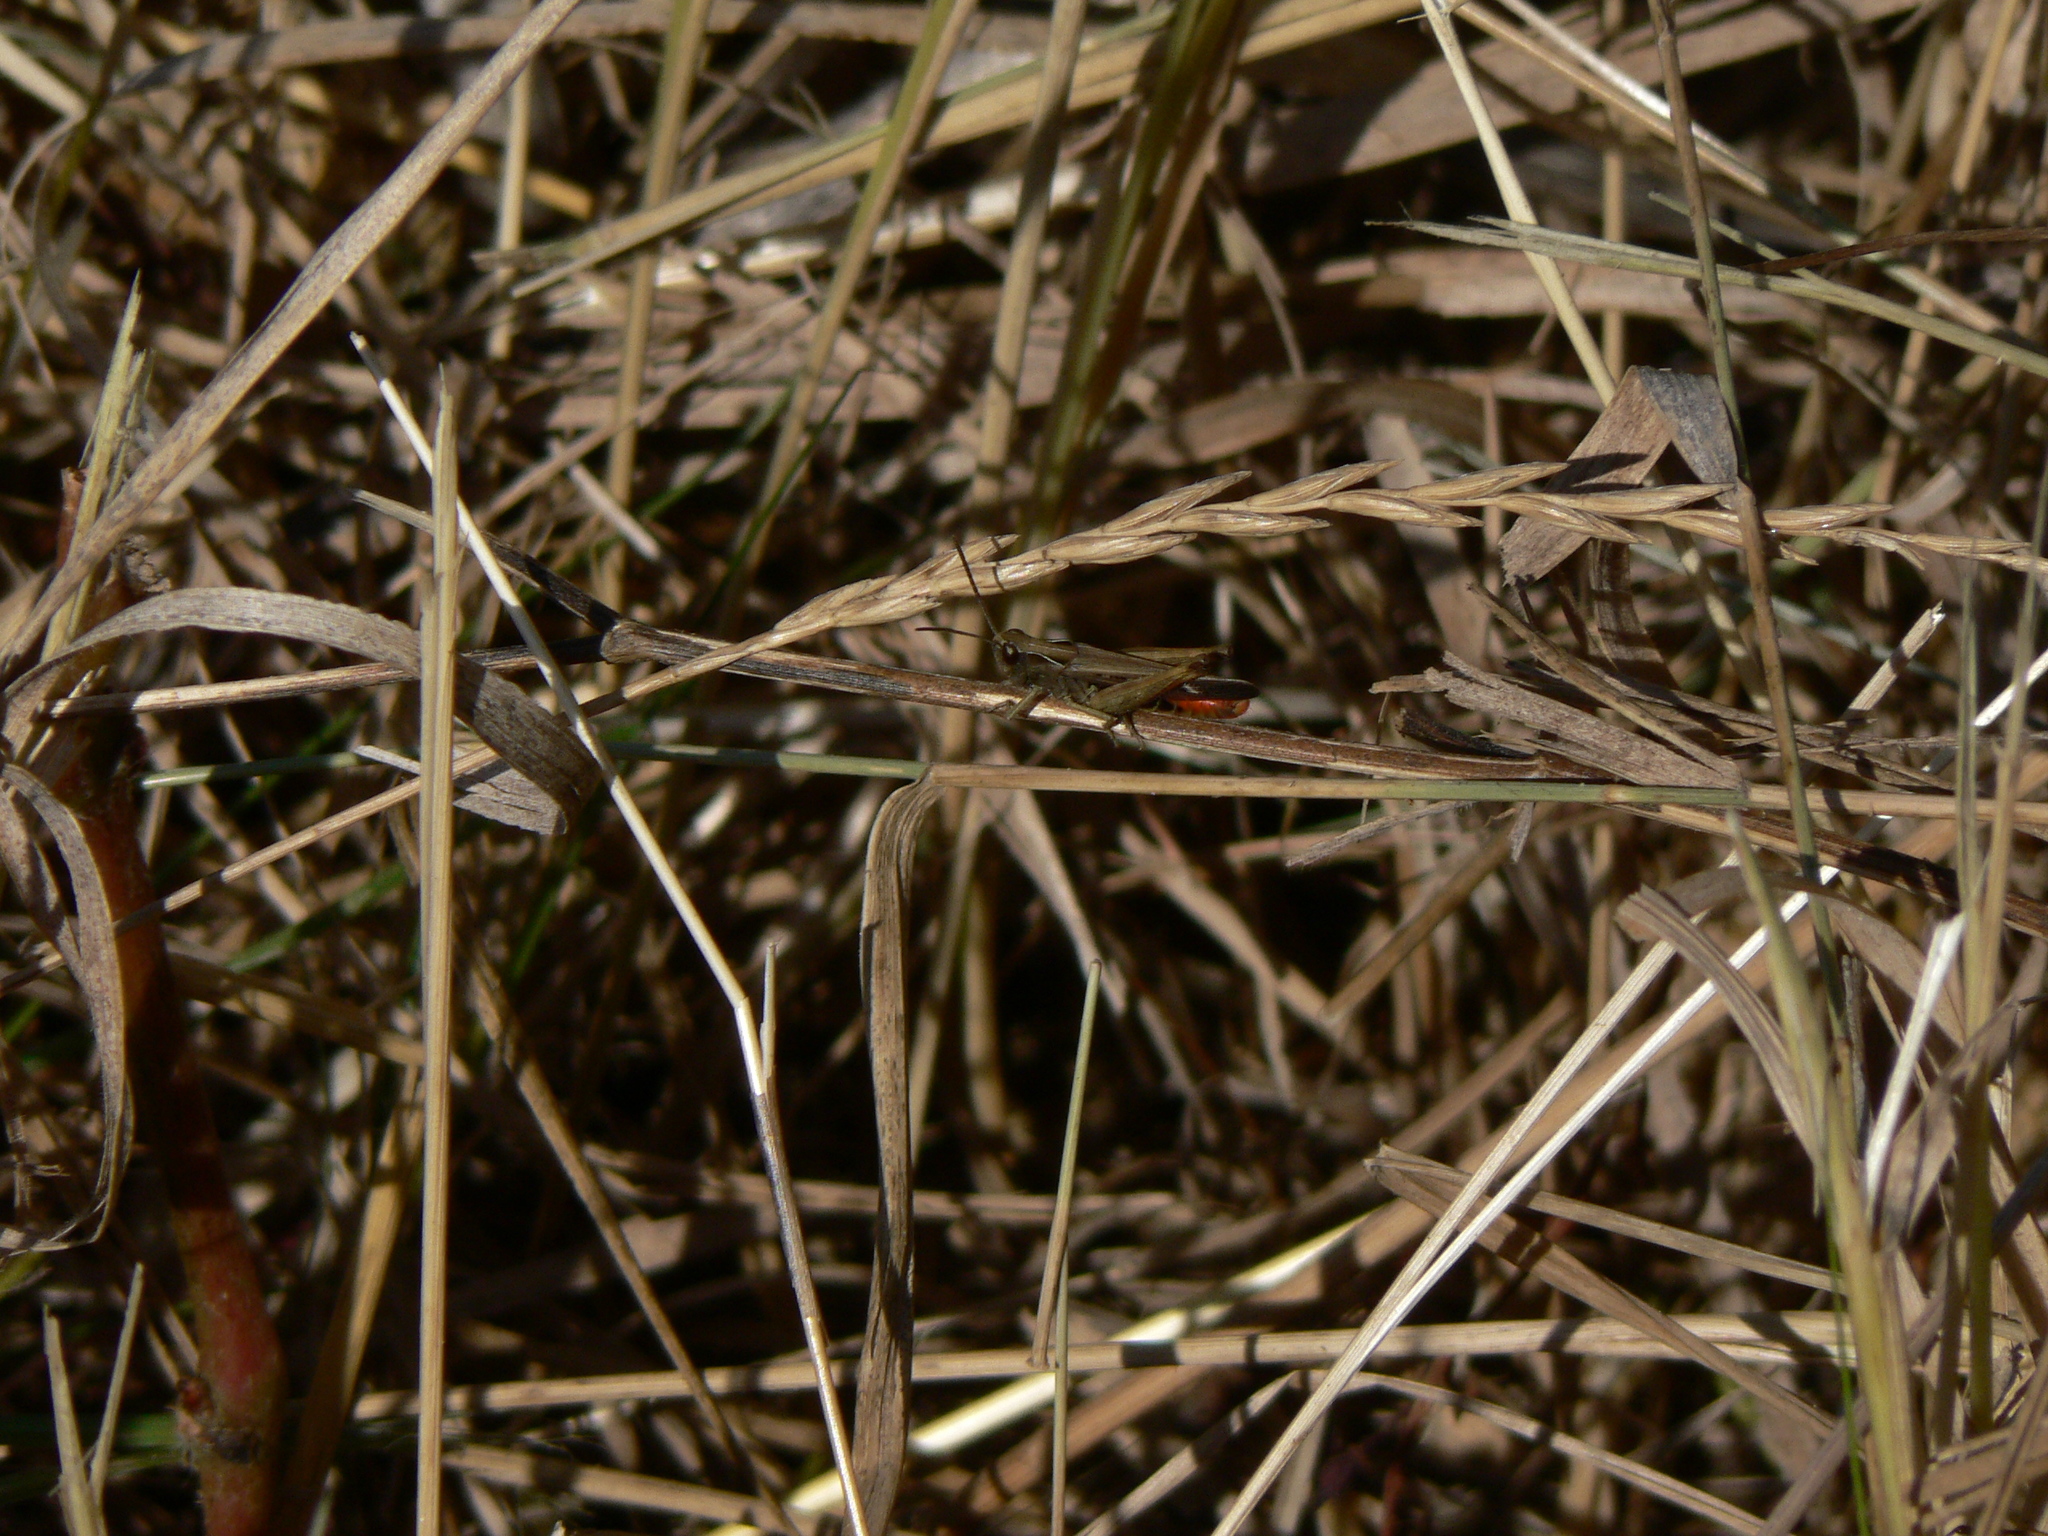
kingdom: Animalia
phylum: Arthropoda
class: Insecta
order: Orthoptera
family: Acrididae
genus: Omocestus
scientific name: Omocestus rufipes
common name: Woodland grasshopper
